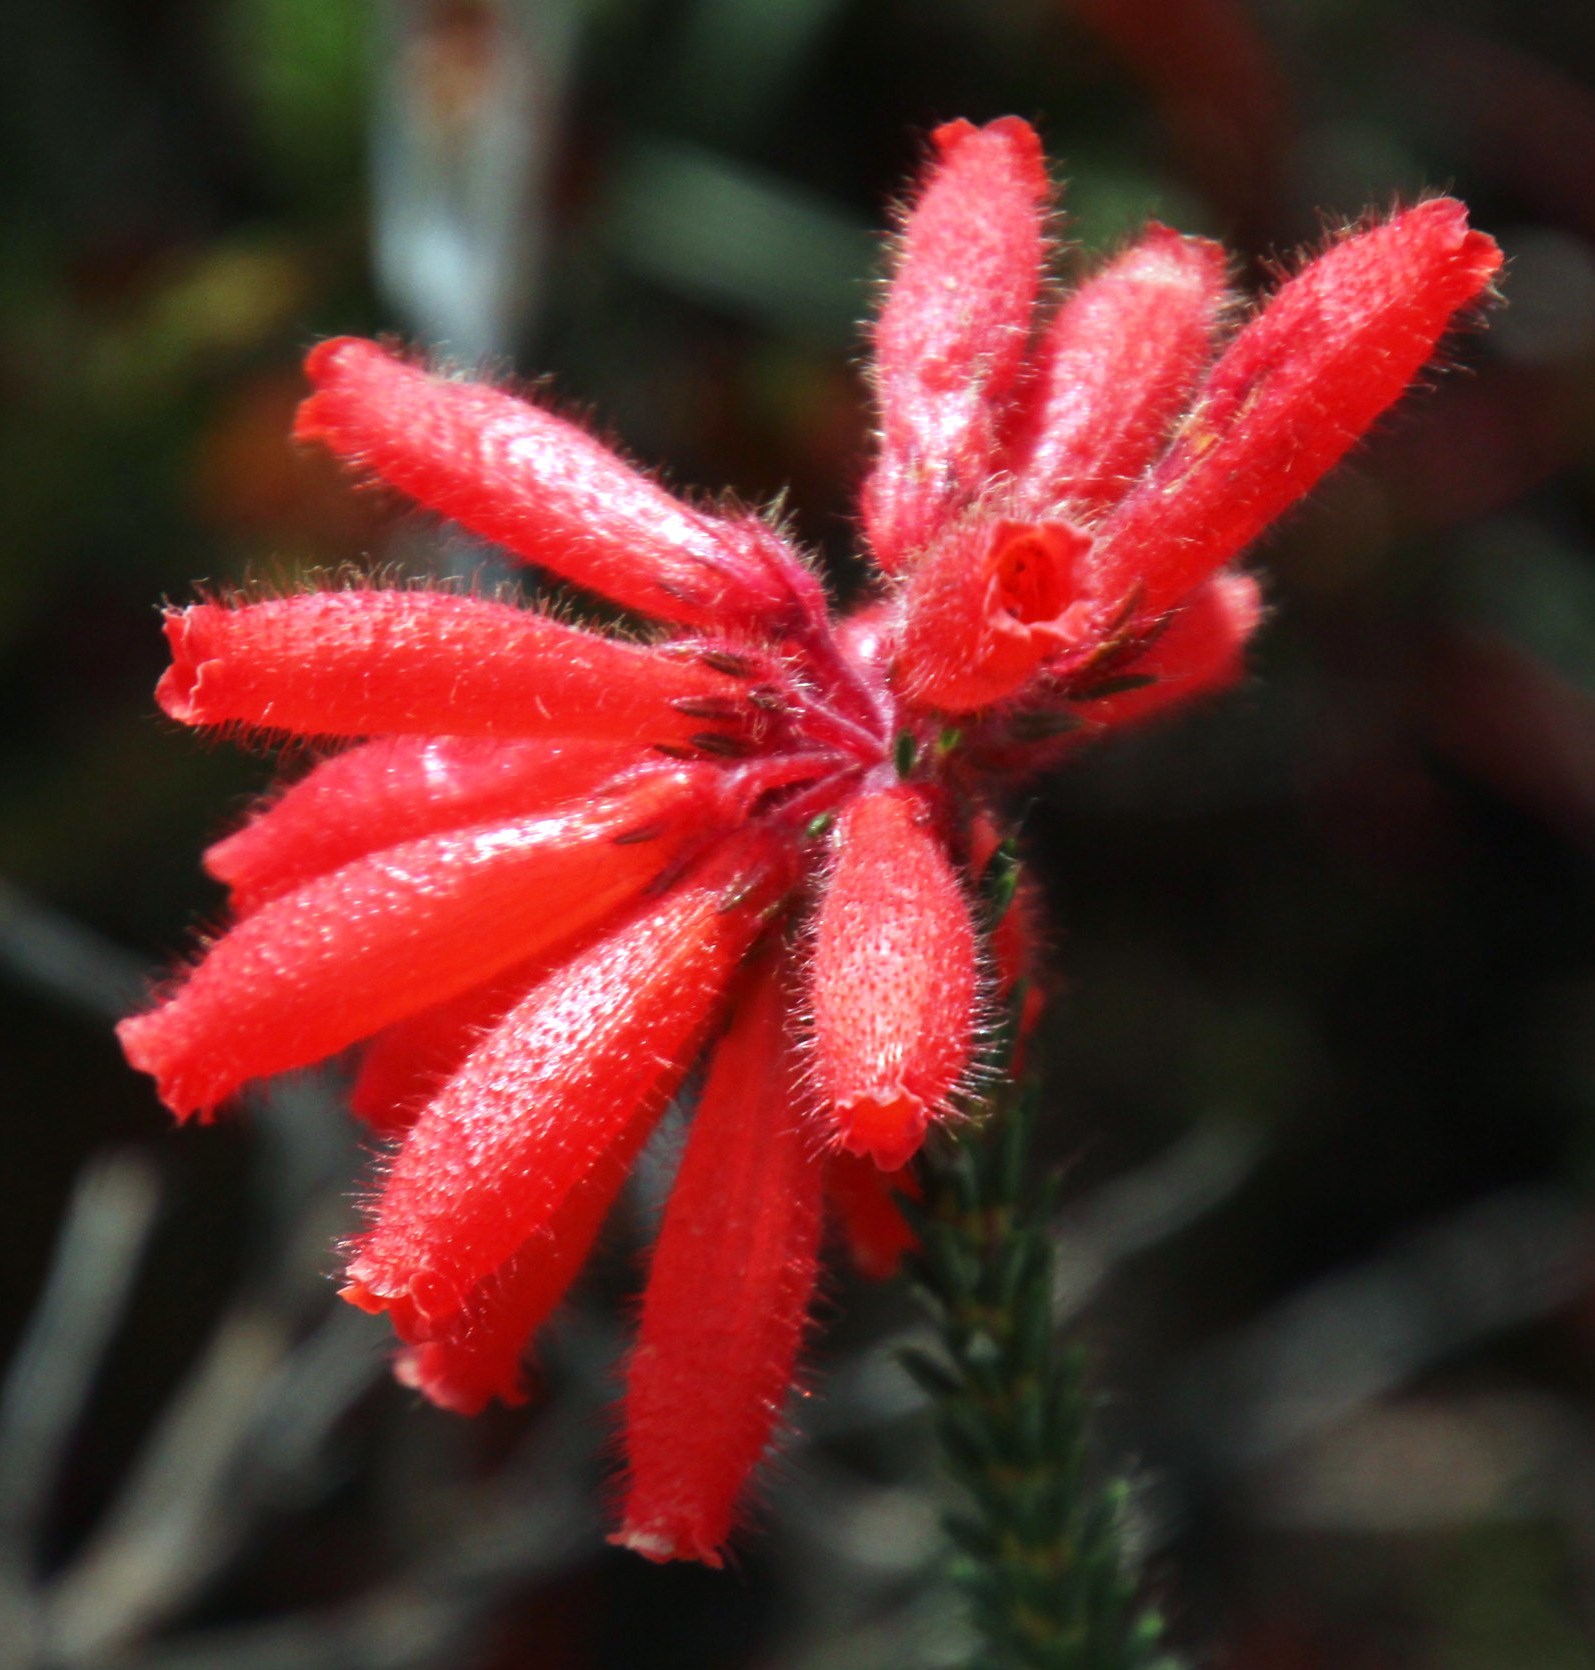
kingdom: Plantae
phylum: Tracheophyta
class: Magnoliopsida
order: Ericales
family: Ericaceae
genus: Erica
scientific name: Erica cerinthoides
